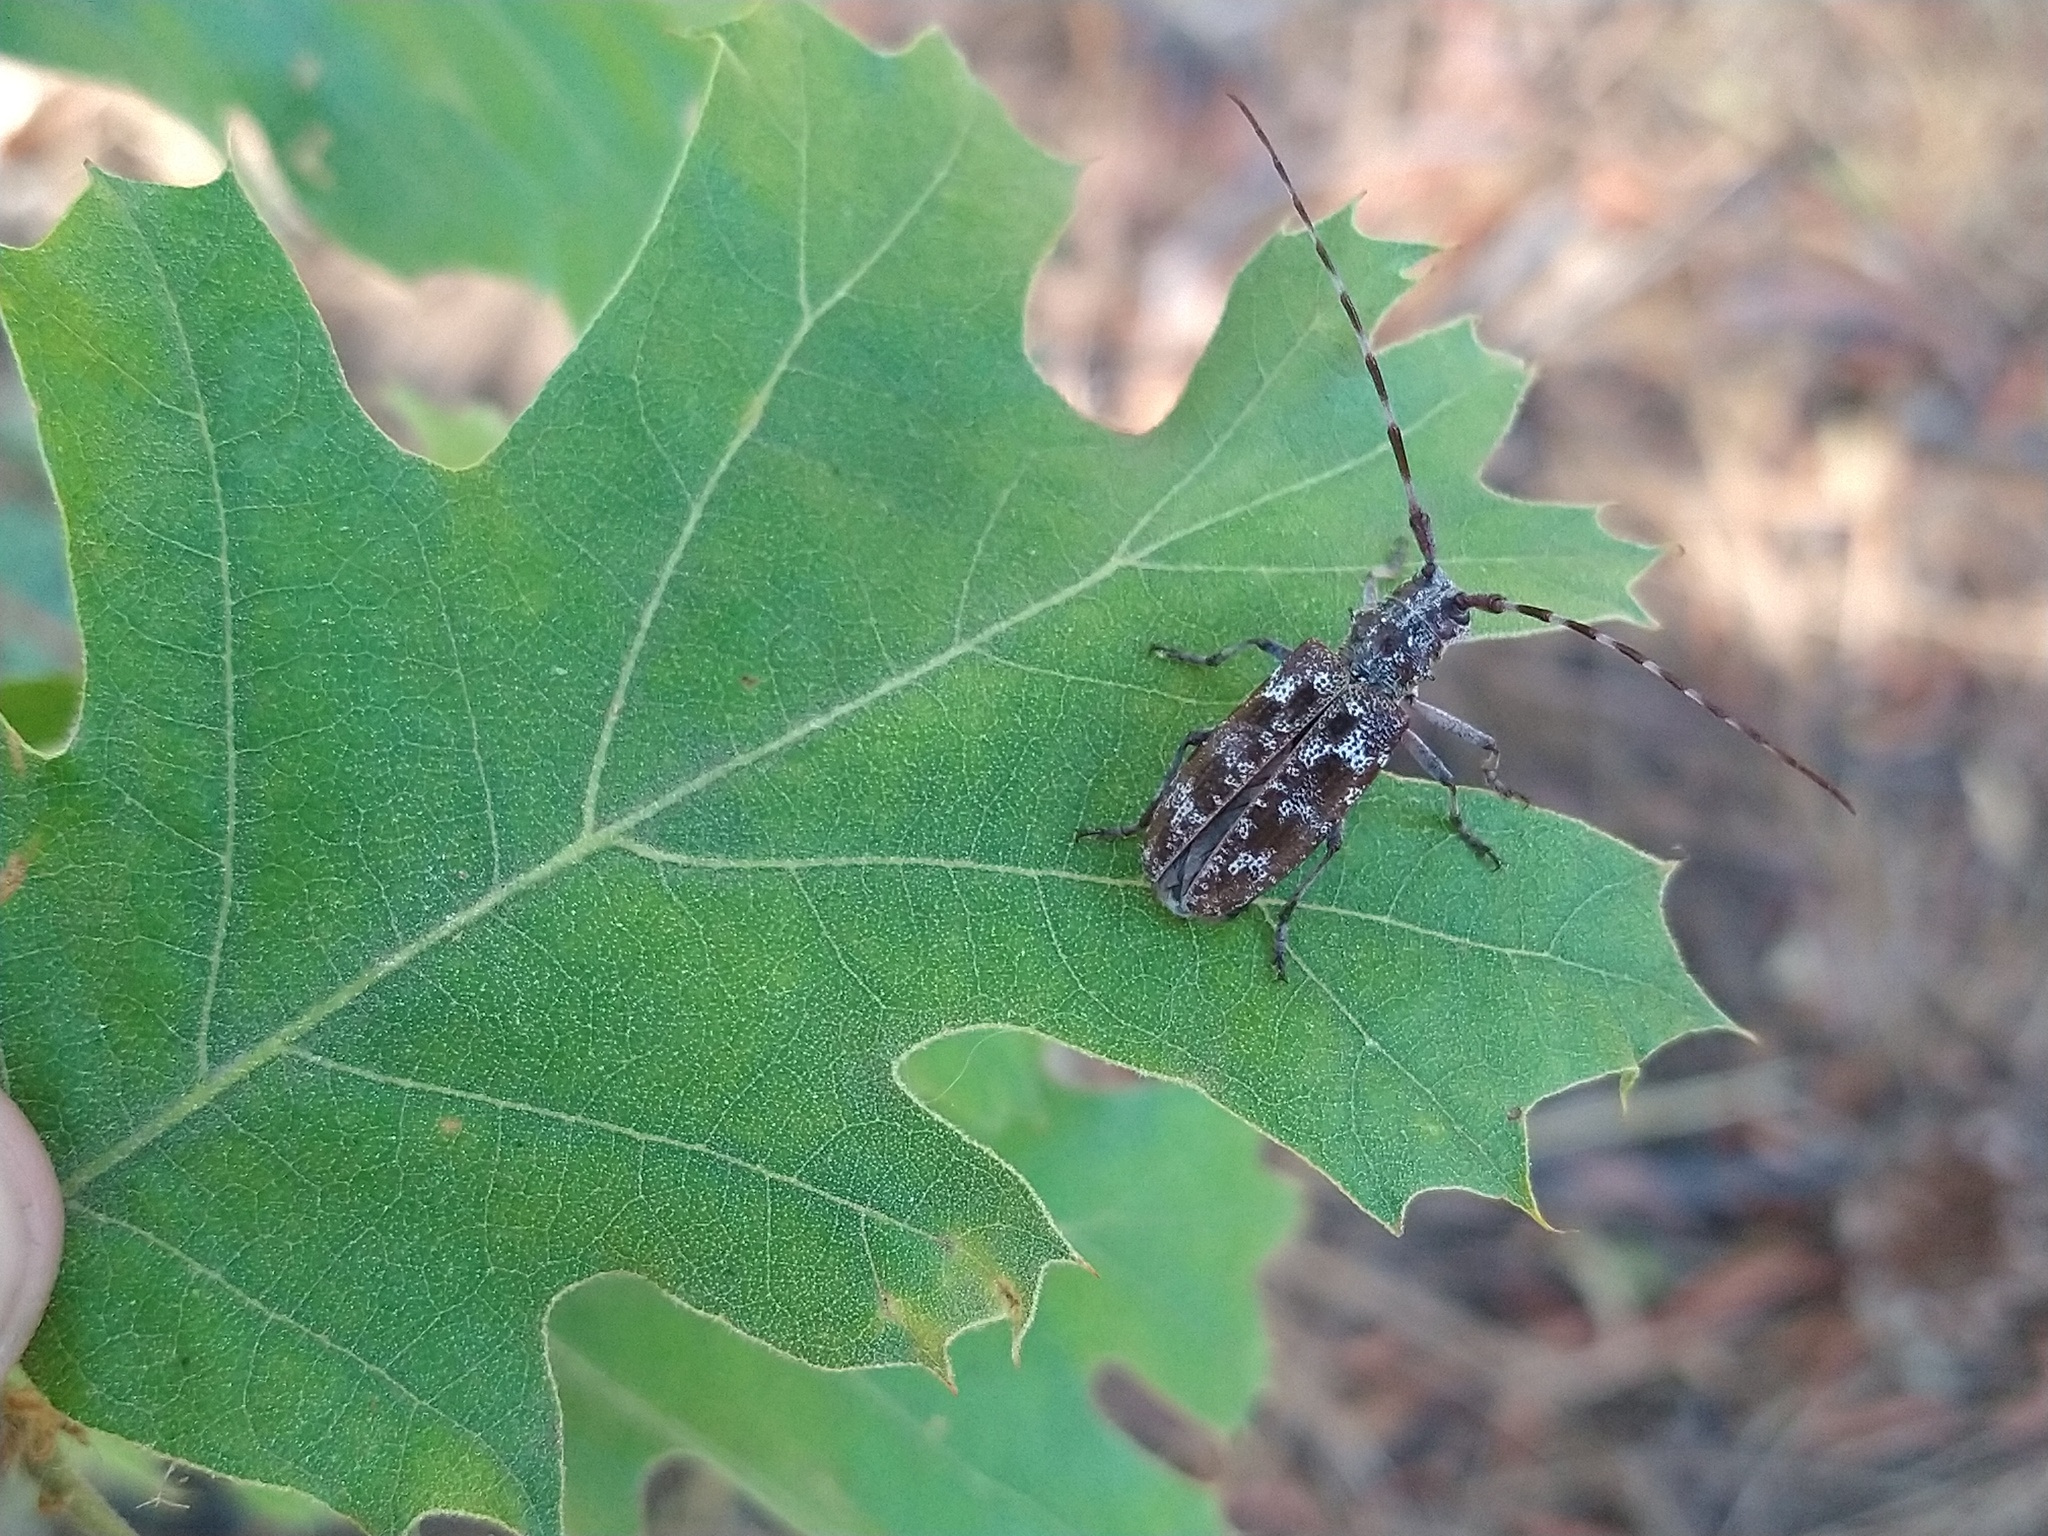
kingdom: Animalia
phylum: Arthropoda
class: Insecta
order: Coleoptera
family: Cerambycidae
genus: Monochamus
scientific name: Monochamus obtusus
